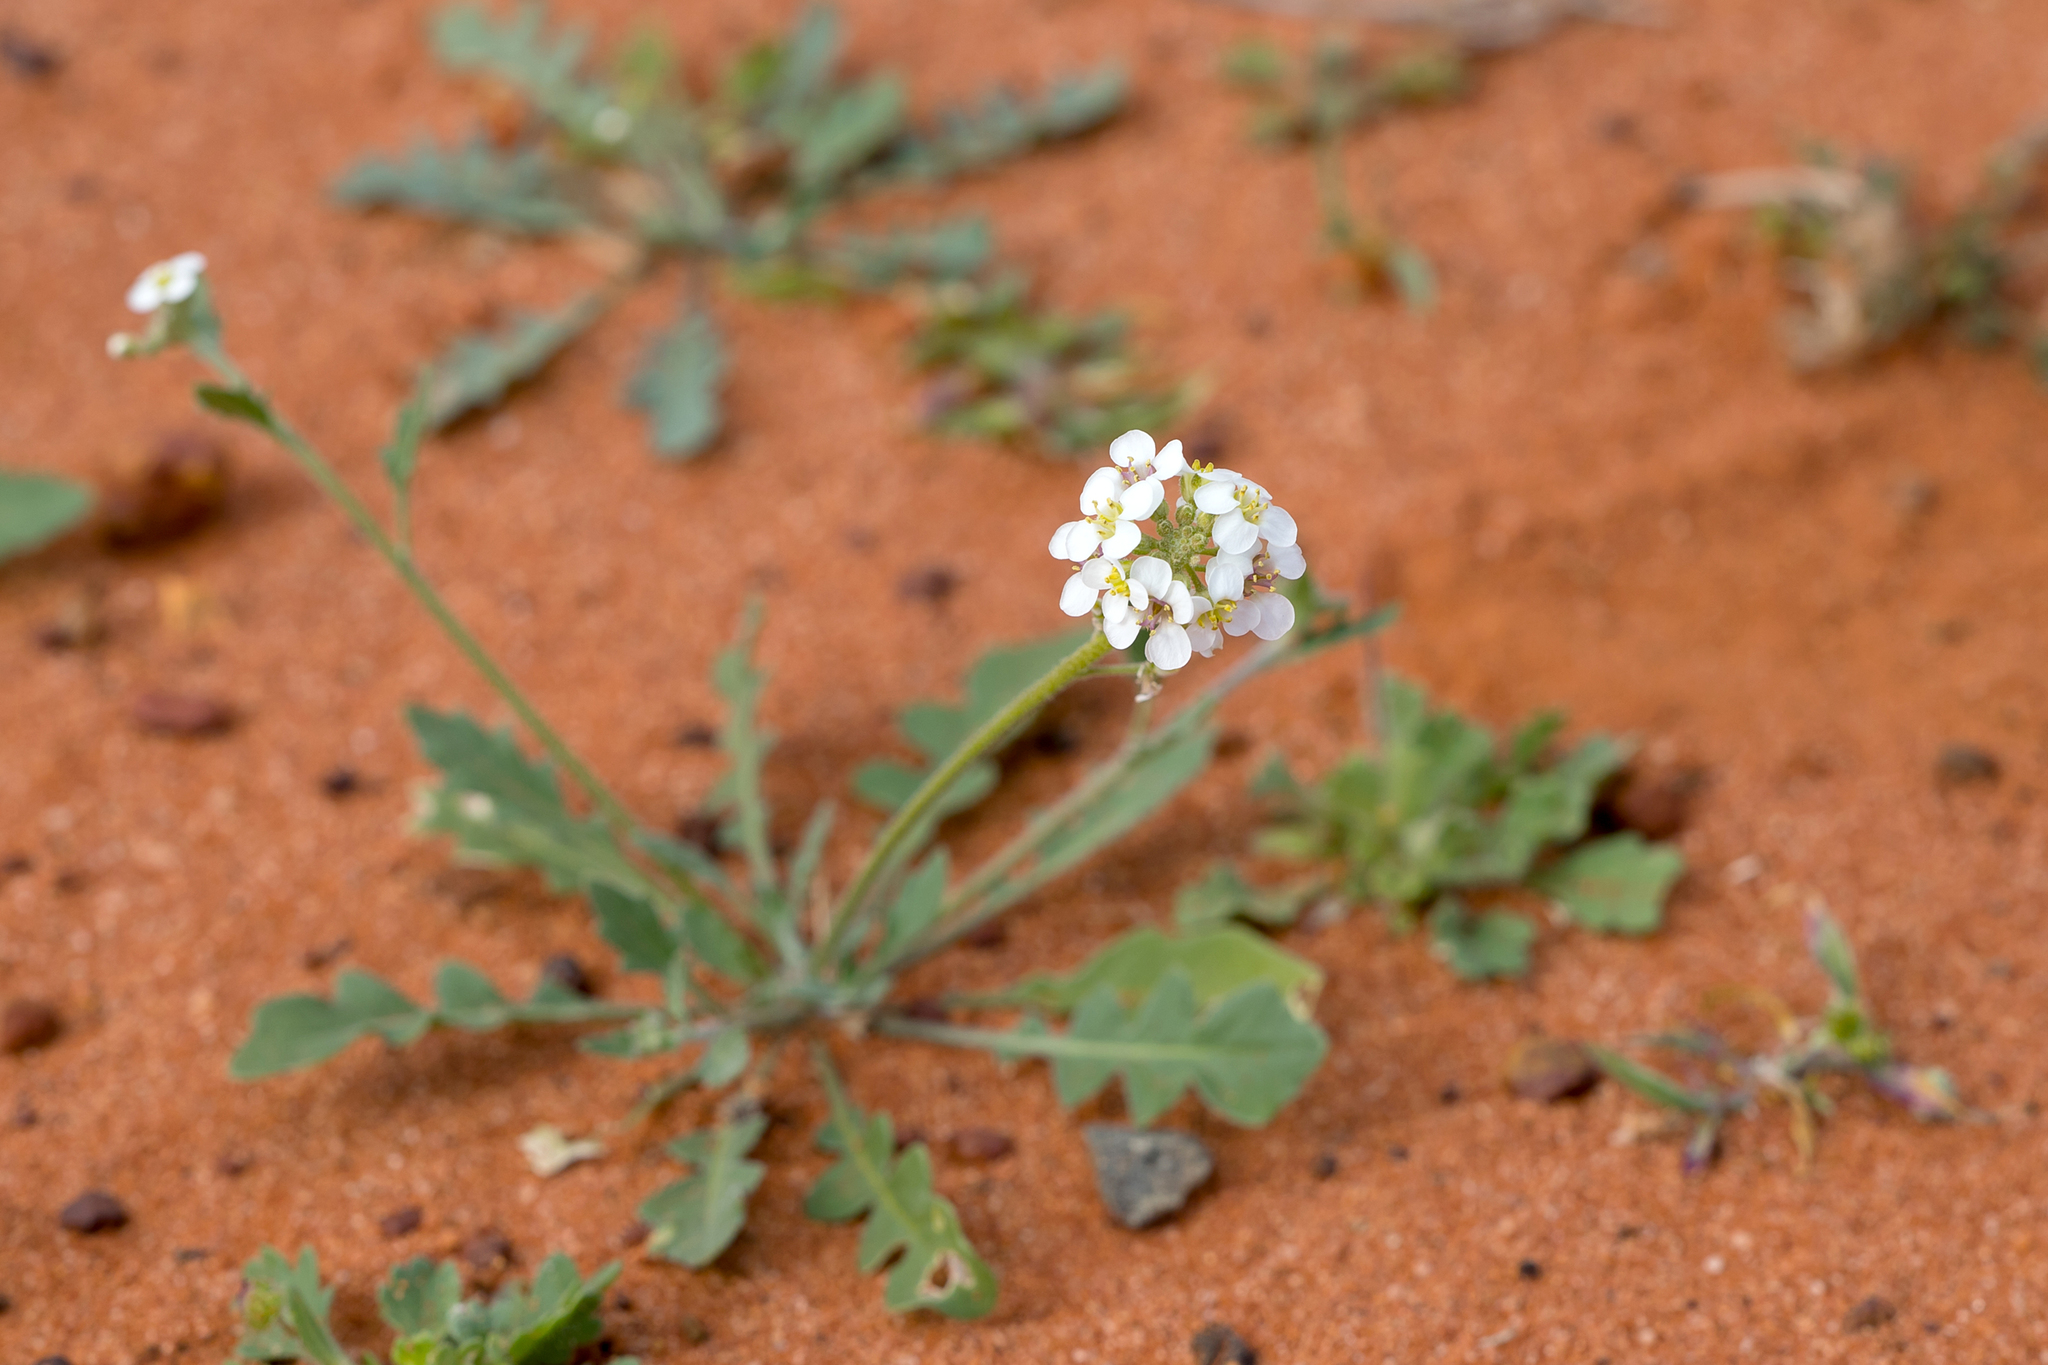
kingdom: Plantae
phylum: Tracheophyta
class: Magnoliopsida
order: Brassicales
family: Brassicaceae
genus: Harmsiodoxa
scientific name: Harmsiodoxa blennodioides
